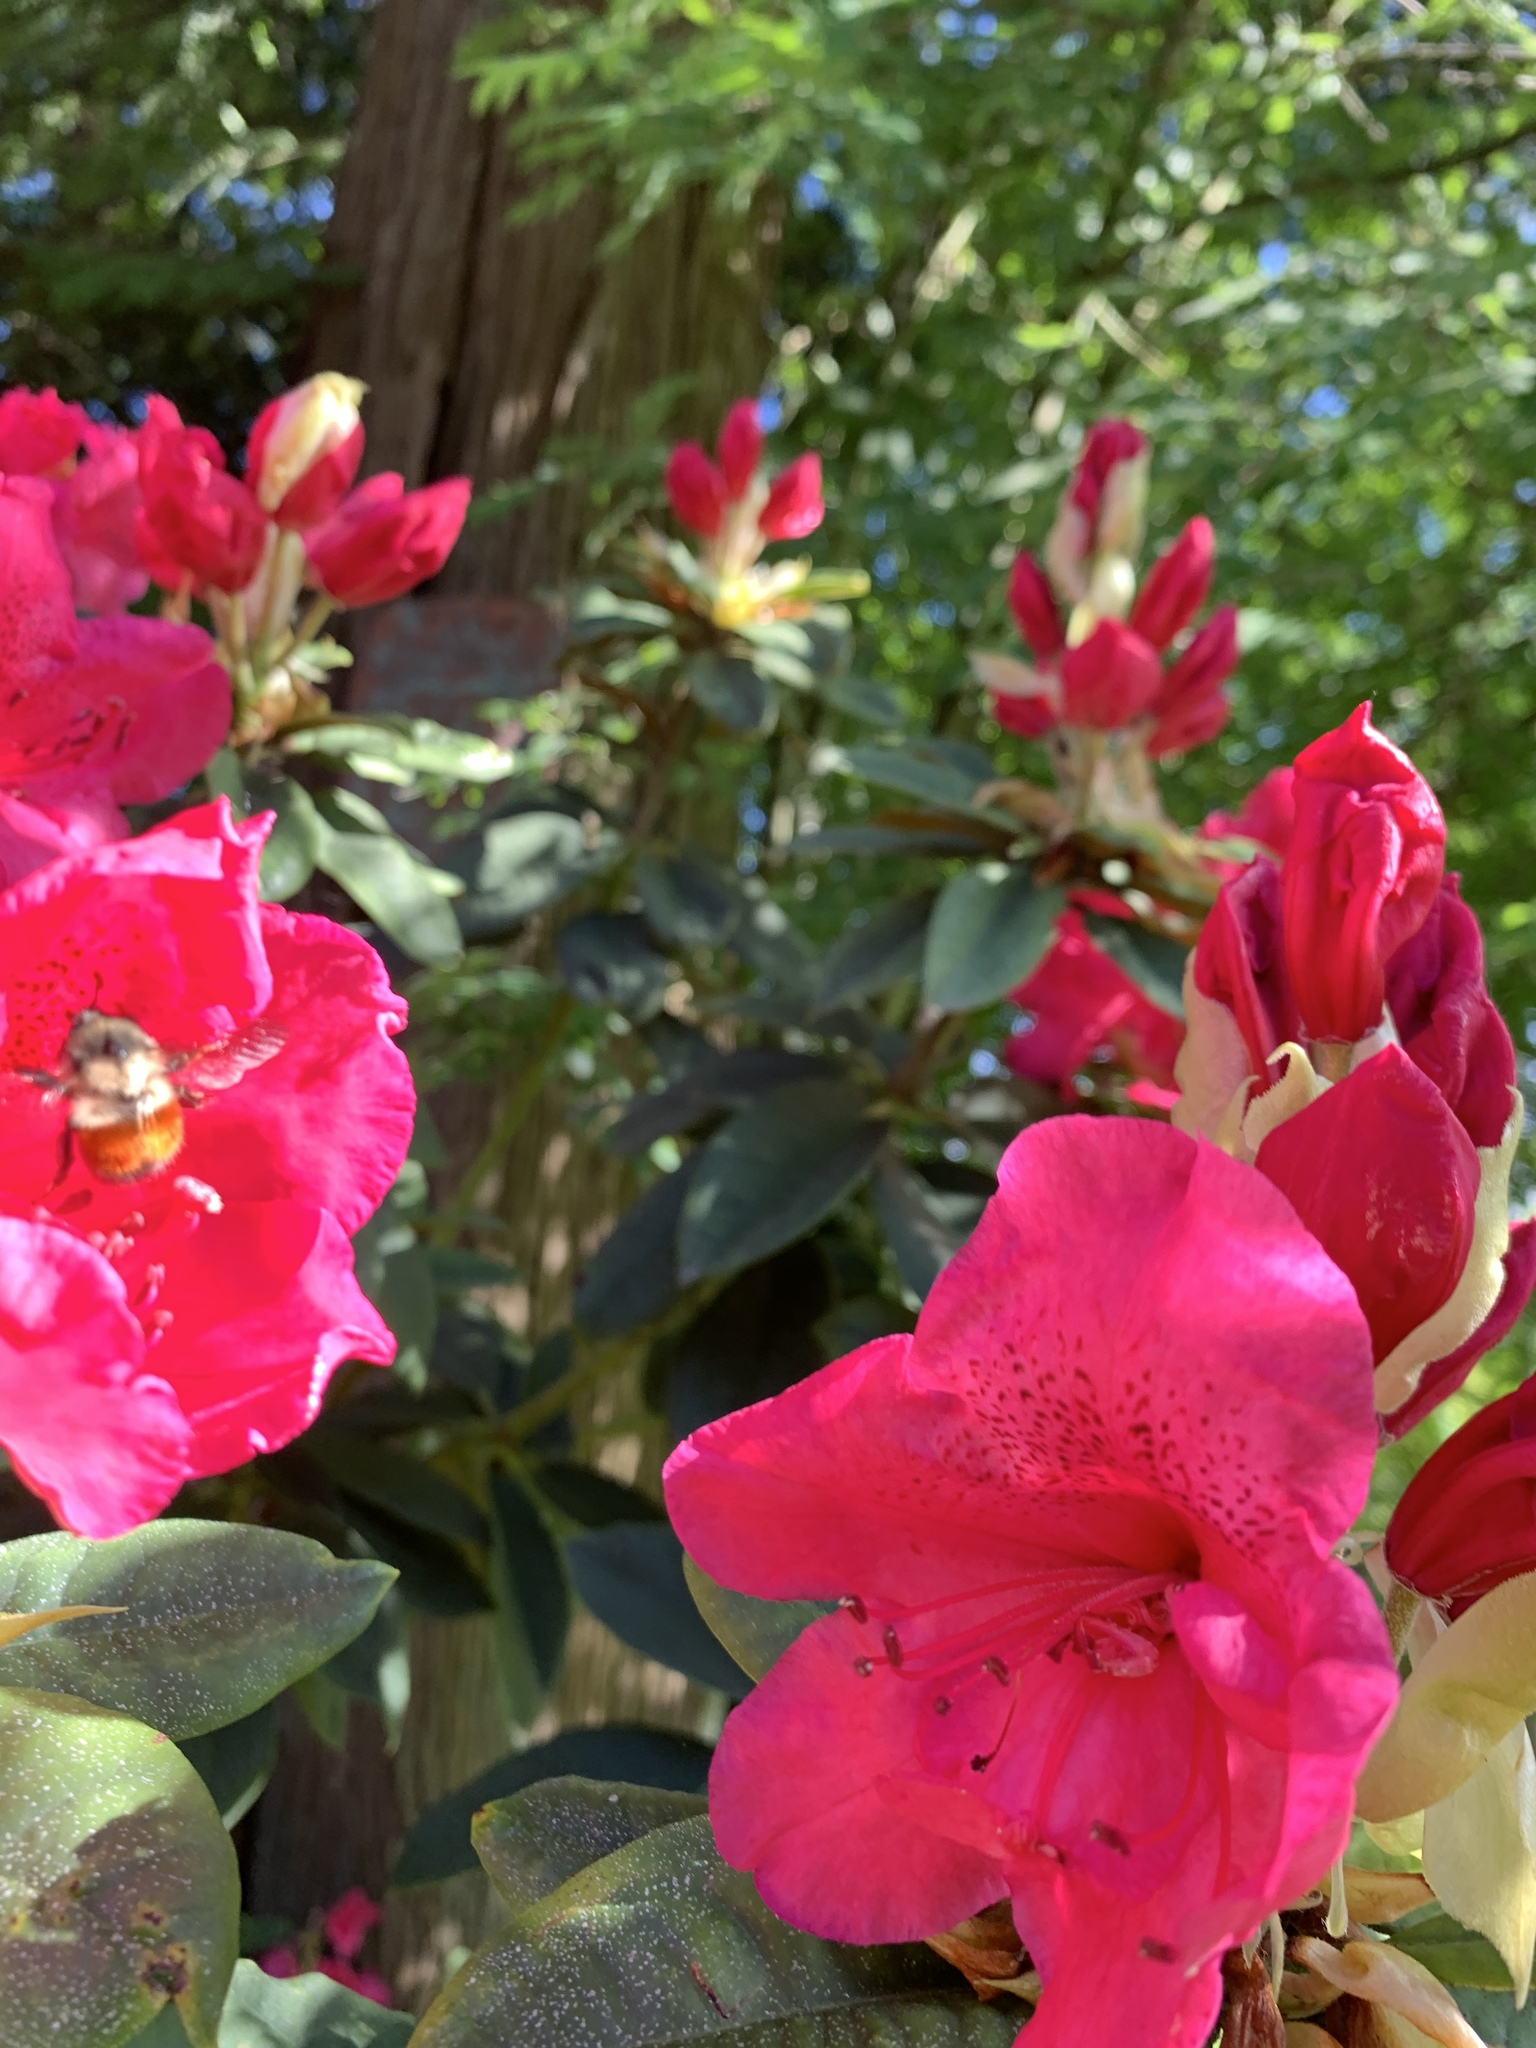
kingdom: Animalia
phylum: Arthropoda
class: Insecta
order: Hymenoptera
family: Apidae
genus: Bombus
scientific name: Bombus melanopygus
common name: Black tail bumble bee
